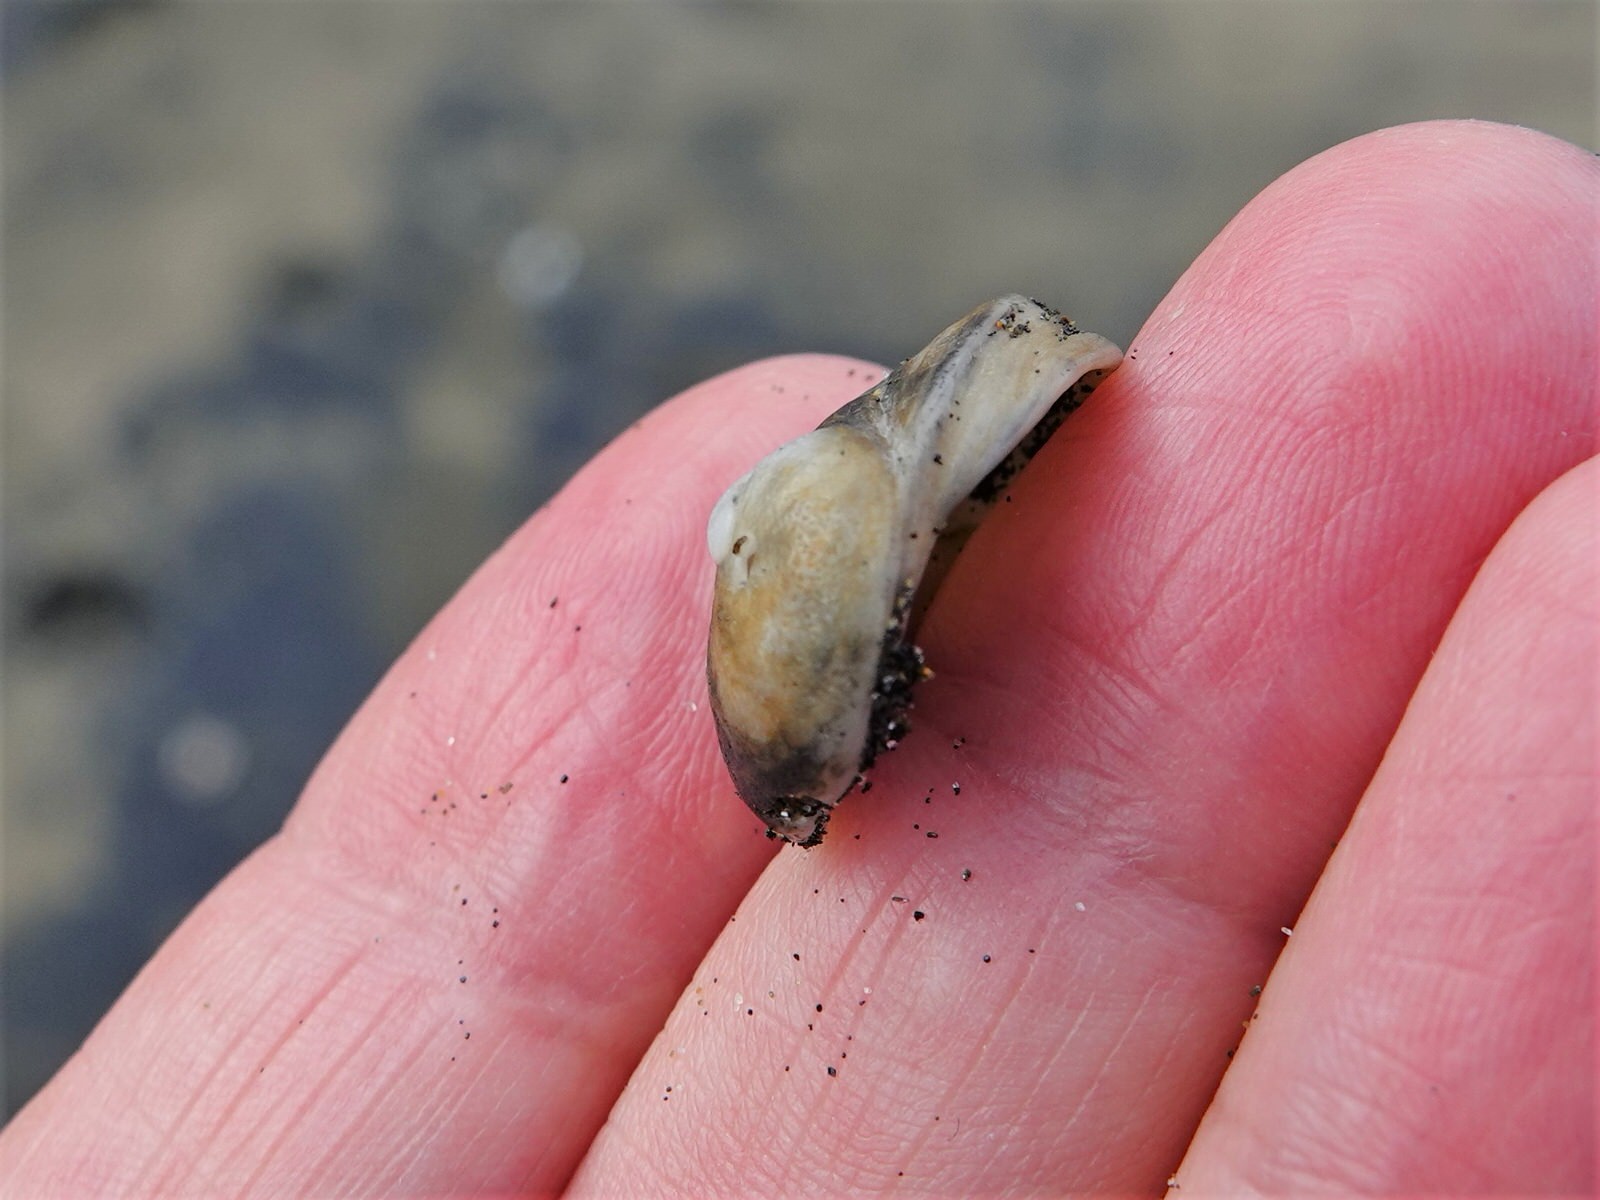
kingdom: Animalia
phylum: Mollusca
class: Gastropoda
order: Littorinimorpha
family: Calyptraeidae
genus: Sigapatella
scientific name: Sigapatella novaezelandiae
